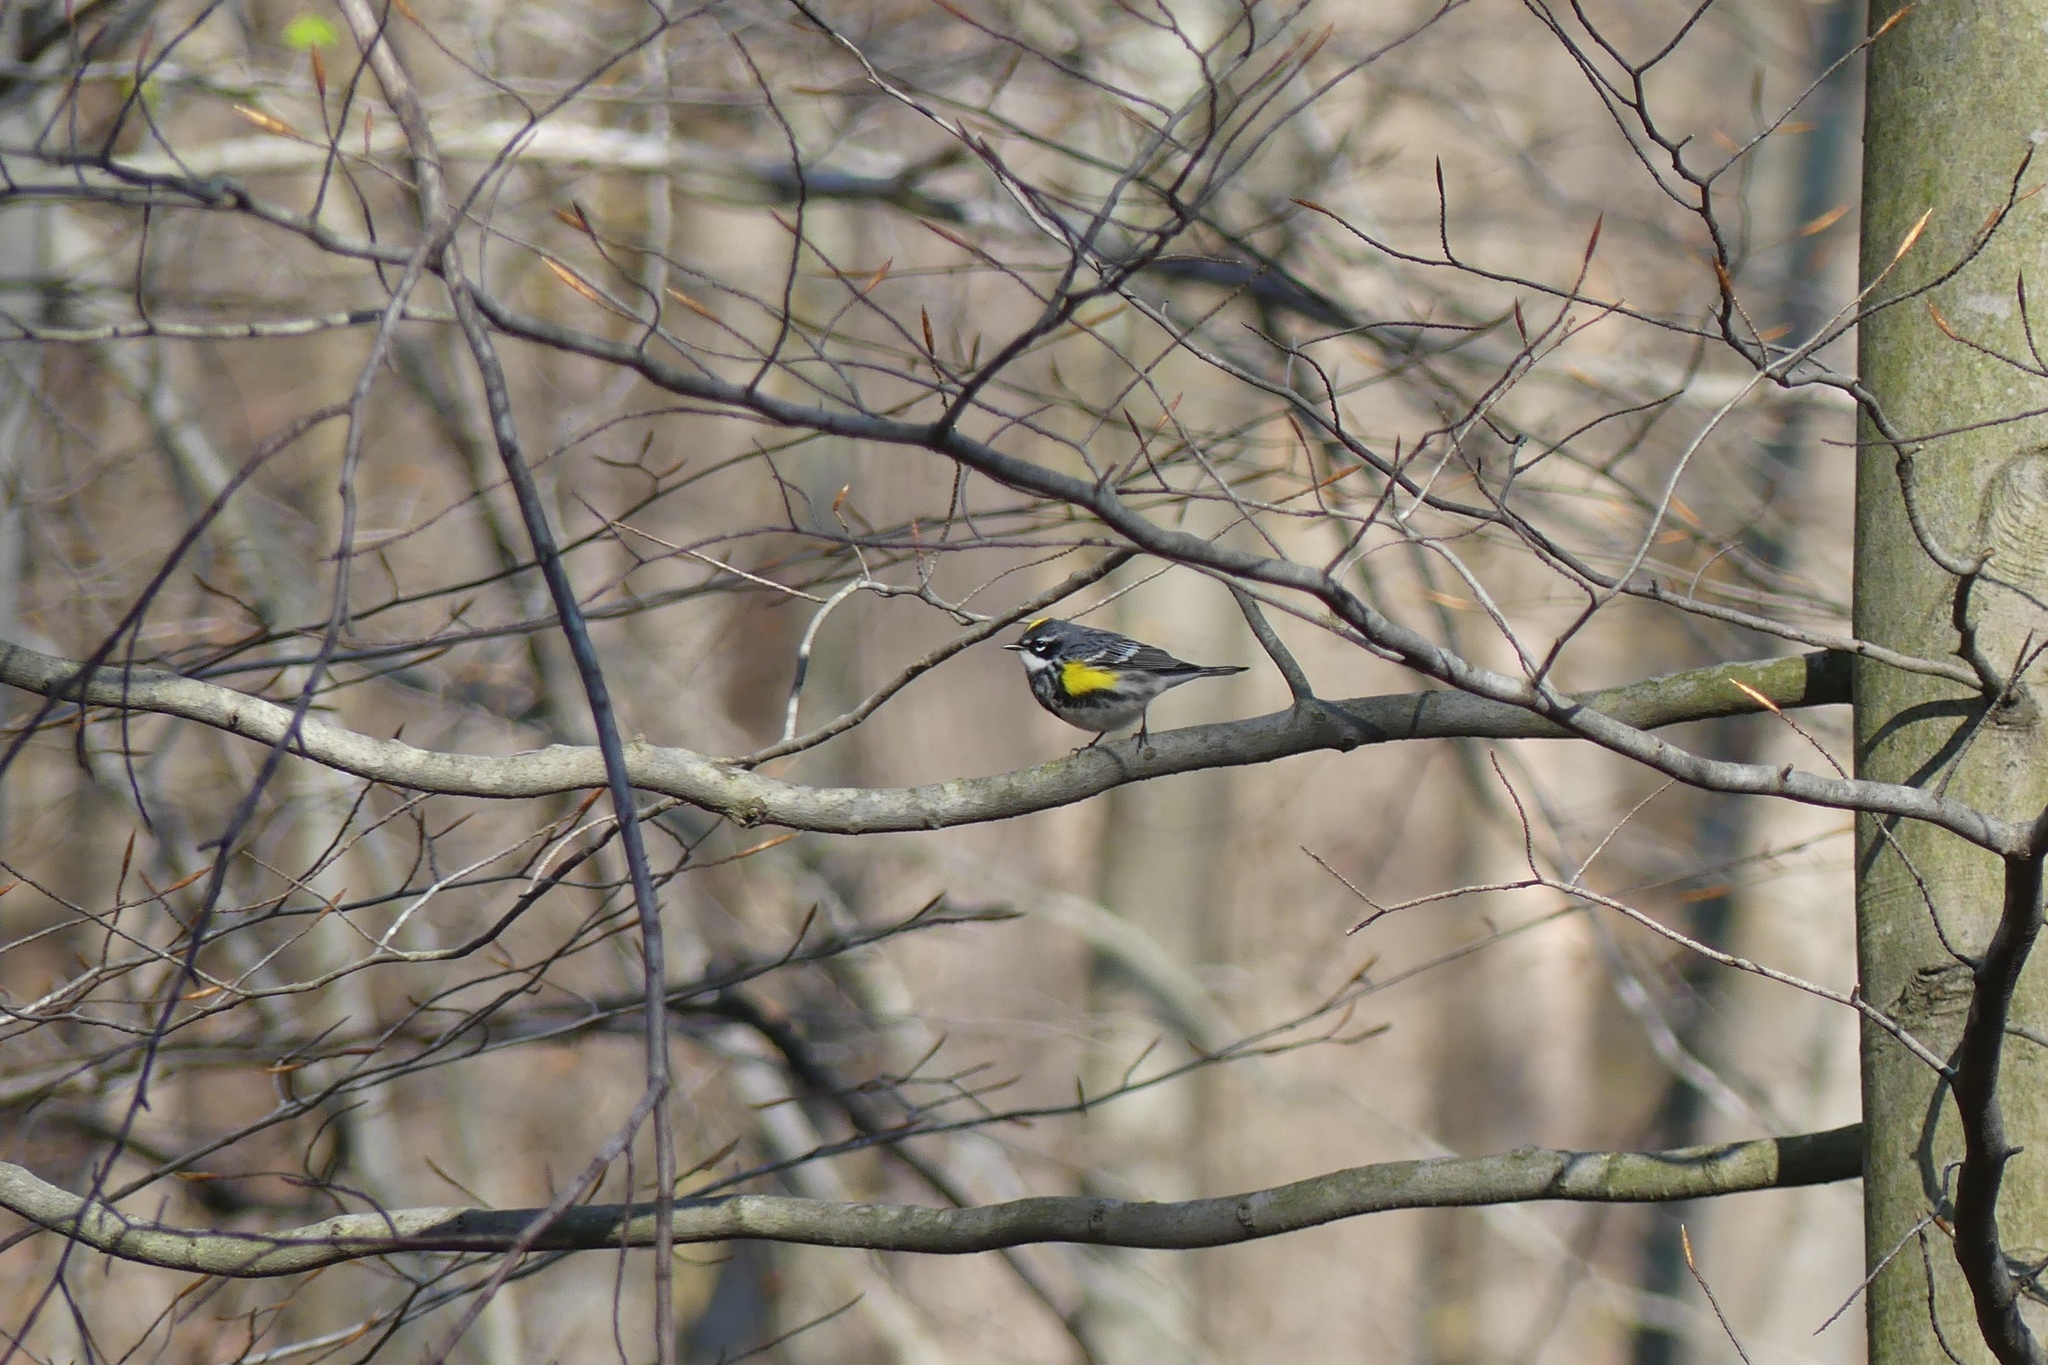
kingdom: Animalia
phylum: Chordata
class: Aves
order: Passeriformes
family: Parulidae
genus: Setophaga
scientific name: Setophaga coronata
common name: Myrtle warbler
